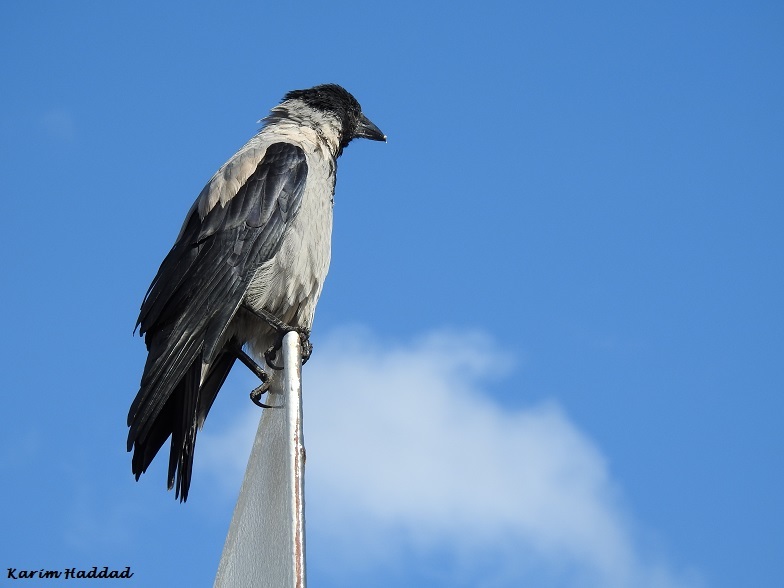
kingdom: Animalia
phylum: Chordata
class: Aves
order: Passeriformes
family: Corvidae
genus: Corvus
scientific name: Corvus cornix
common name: Hooded crow
